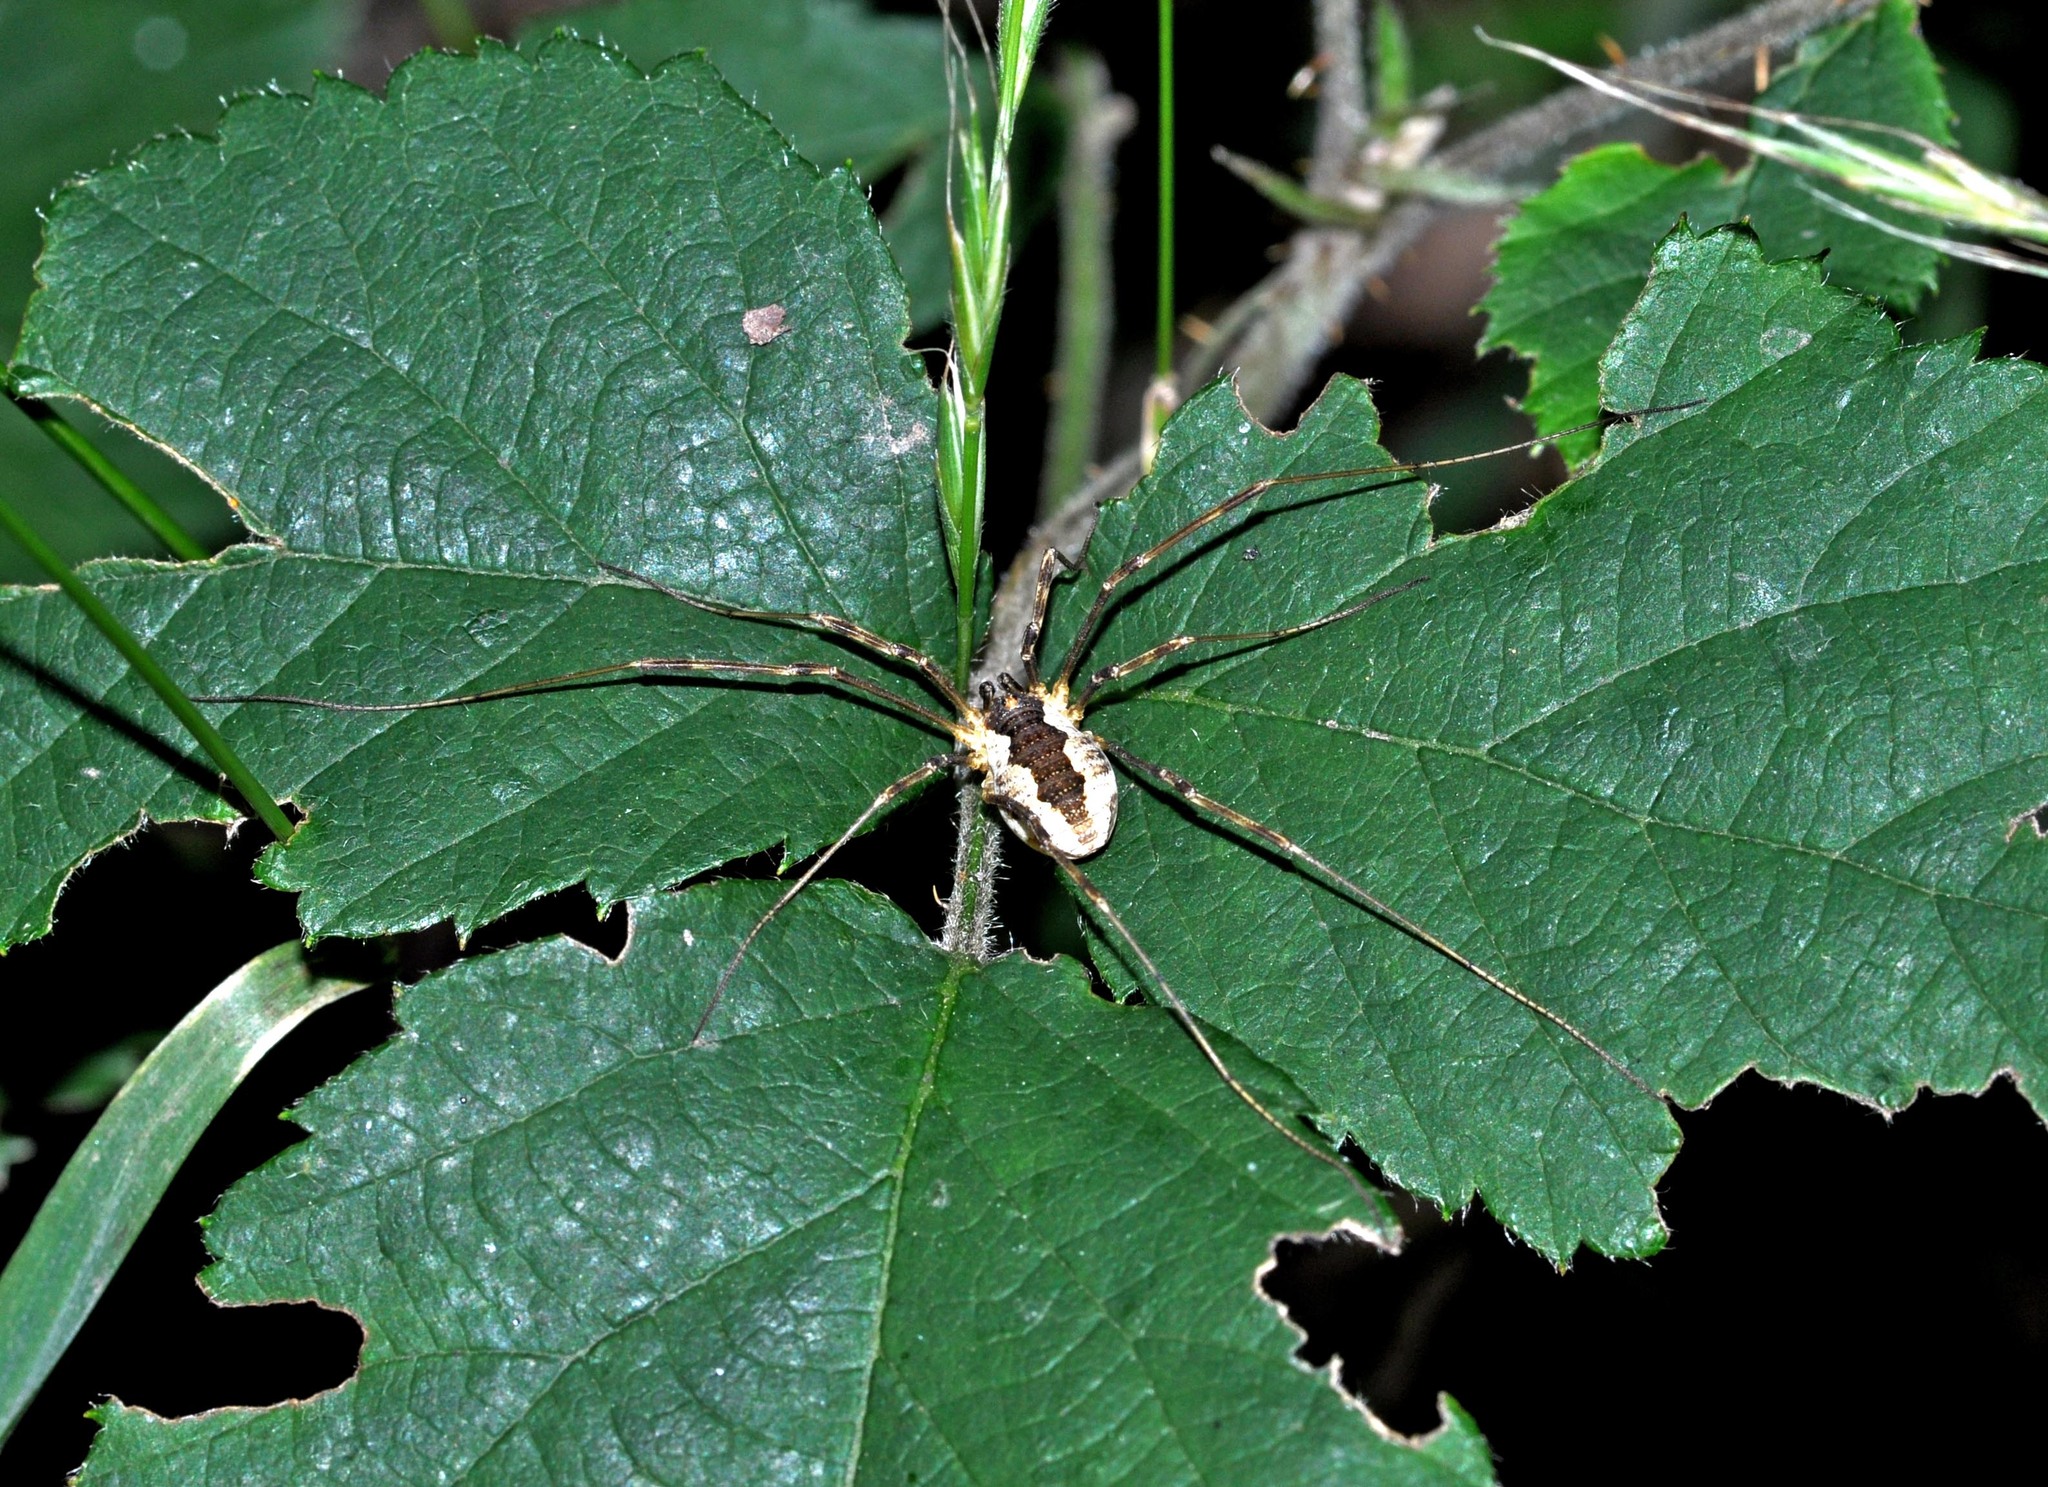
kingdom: Animalia
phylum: Arthropoda
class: Arachnida
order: Opiliones
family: Phalangiidae
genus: Mitopus
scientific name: Mitopus morio
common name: Saddleback harvestman
